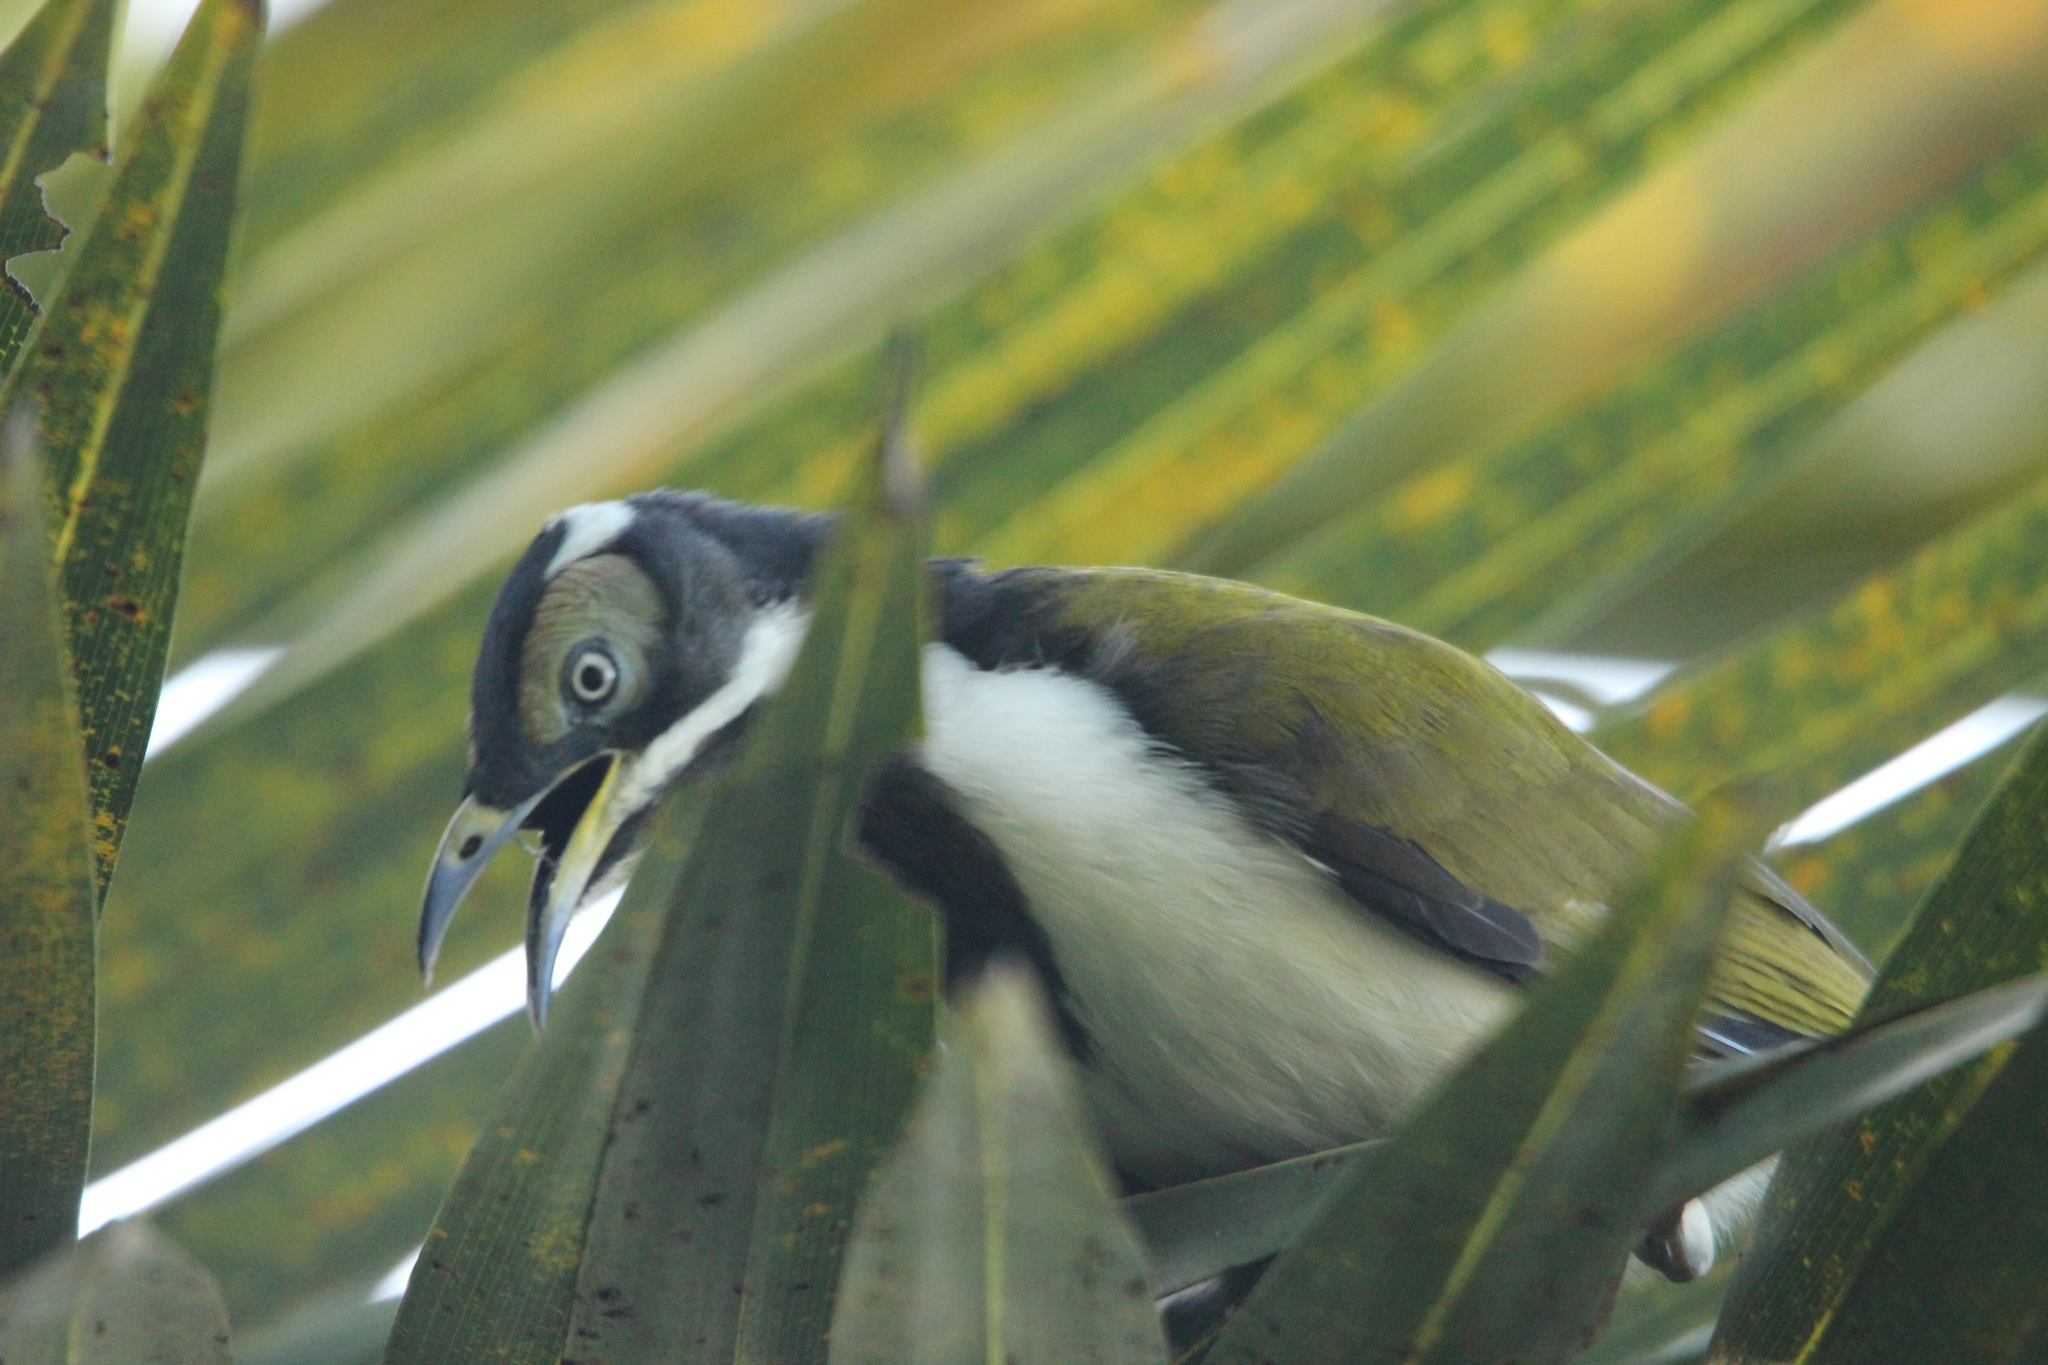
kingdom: Animalia
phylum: Chordata
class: Aves
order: Passeriformes
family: Meliphagidae
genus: Entomyzon
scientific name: Entomyzon cyanotis
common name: Blue-faced honeyeater
